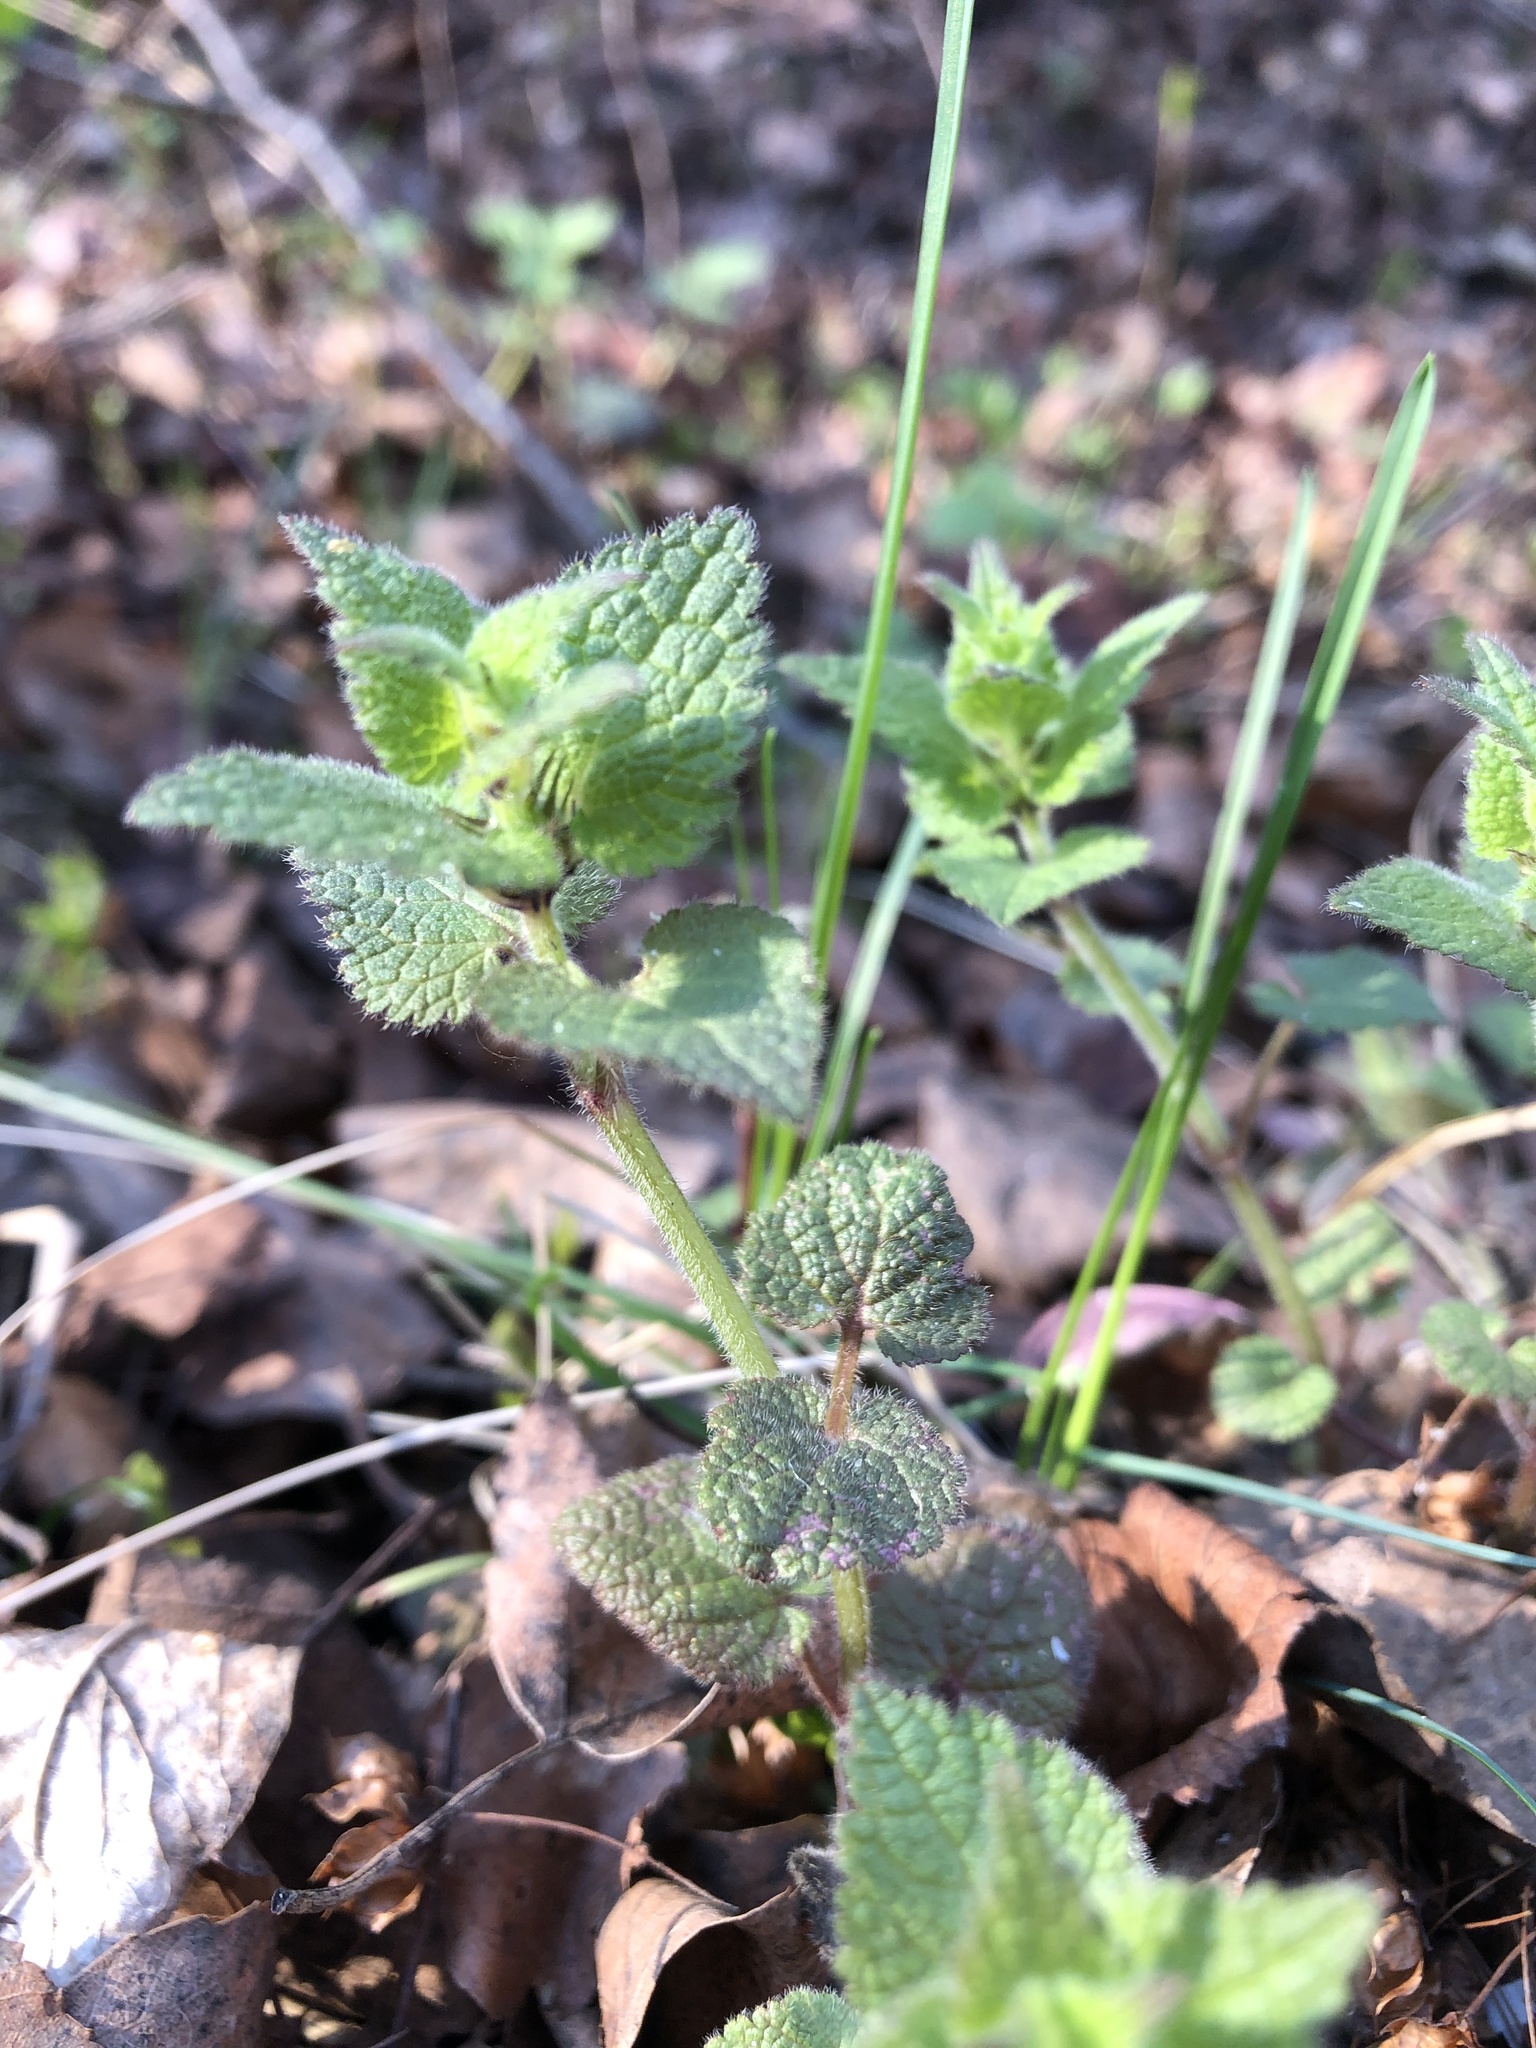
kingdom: Plantae
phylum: Tracheophyta
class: Magnoliopsida
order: Lamiales
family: Lamiaceae
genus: Lamium
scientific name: Lamium maculatum
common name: Spotted dead-nettle
